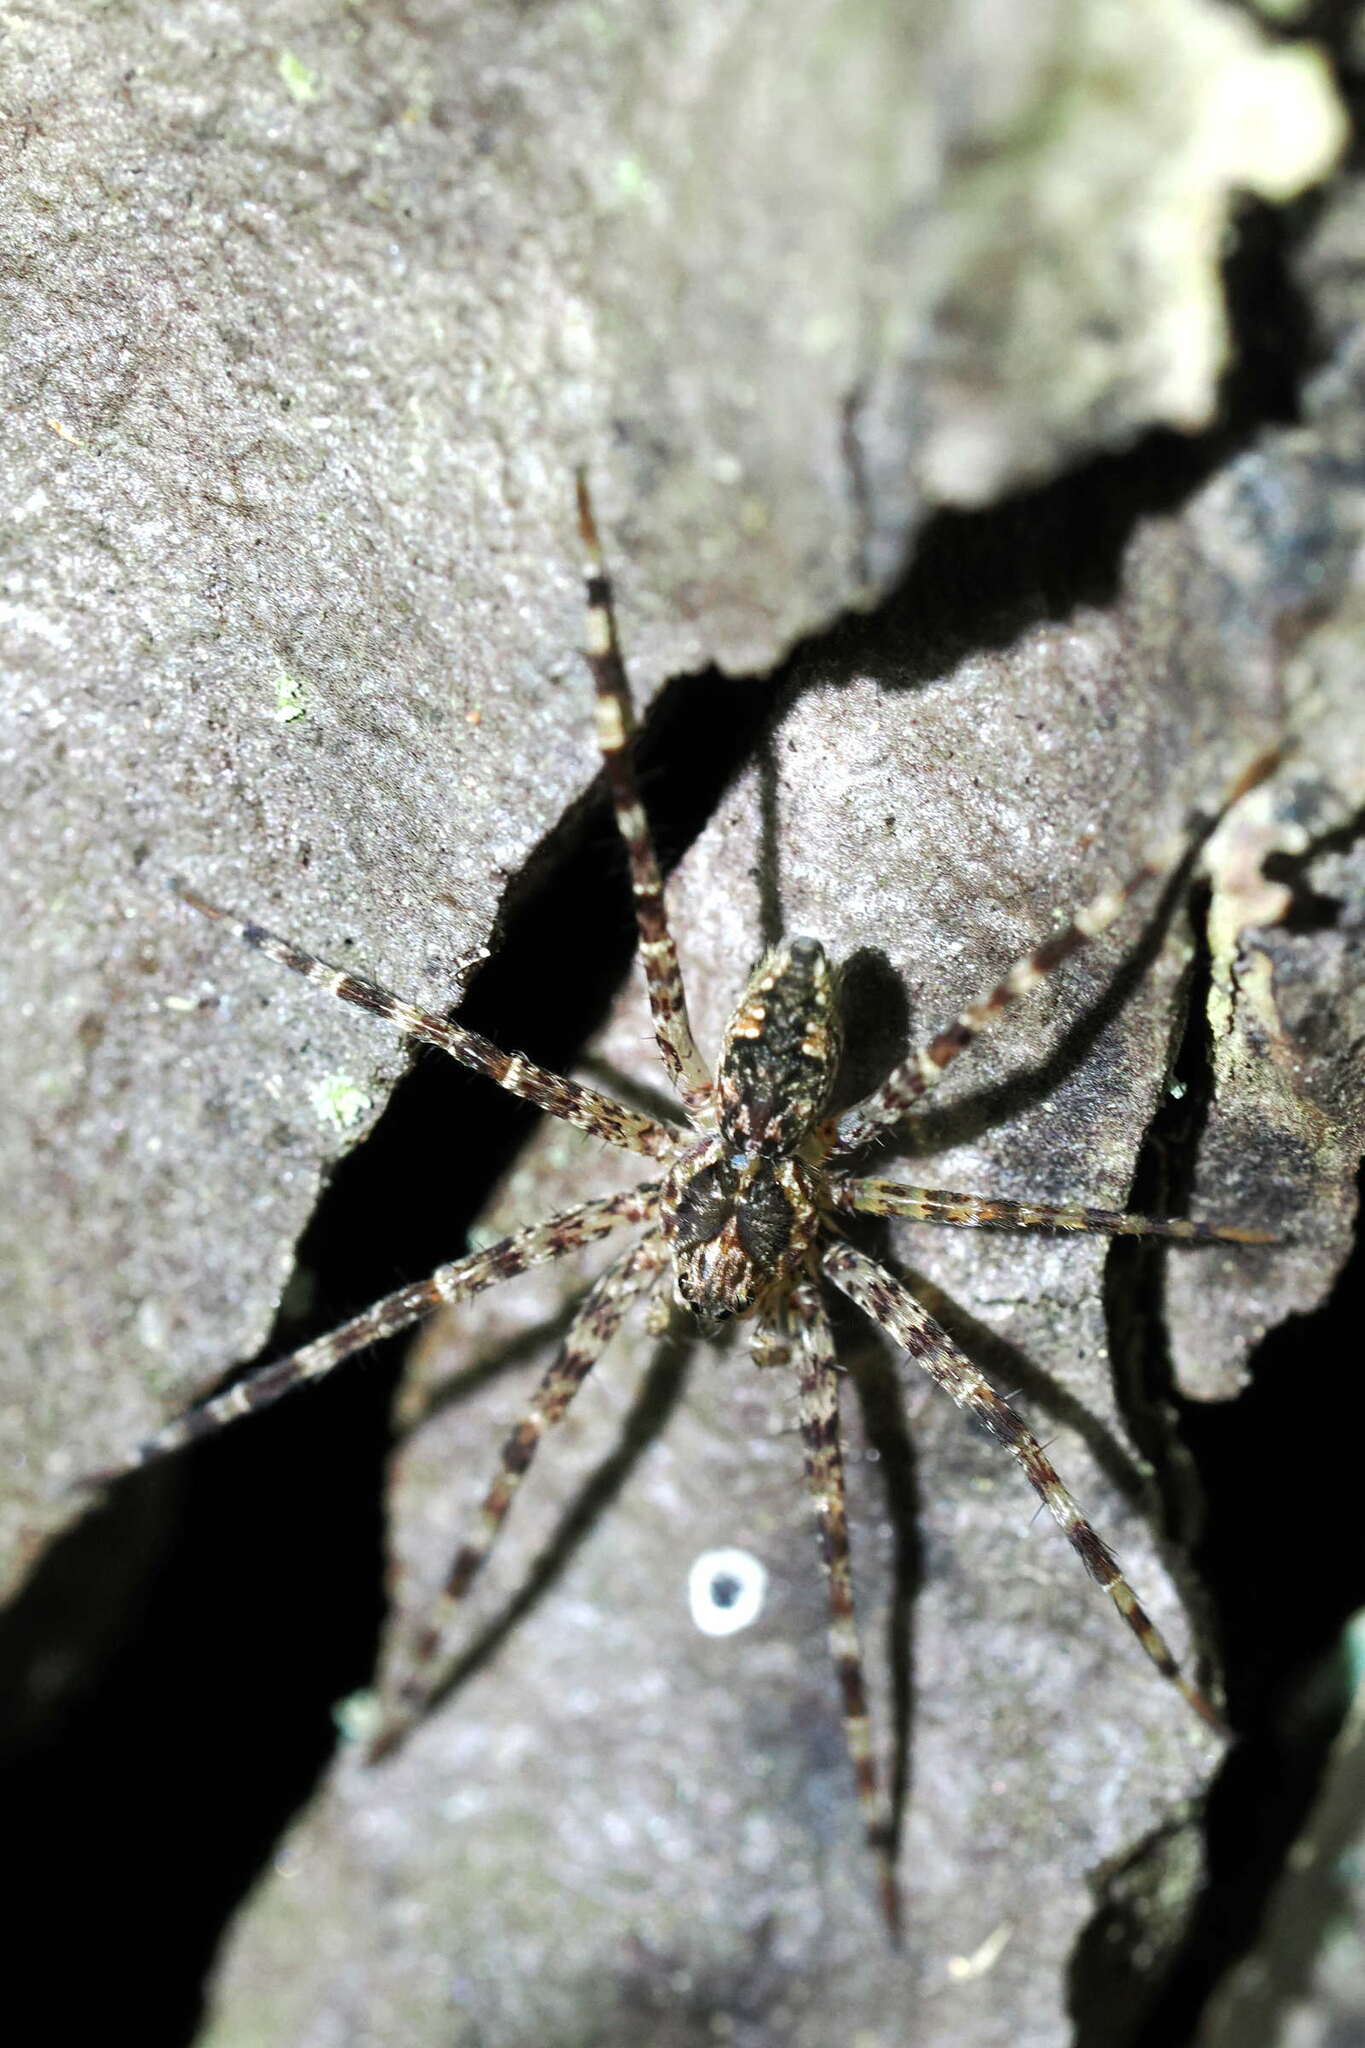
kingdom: Animalia
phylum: Arthropoda
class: Arachnida
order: Araneae
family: Pisauridae
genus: Dolomedes
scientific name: Dolomedes tenebrosus
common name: Dark fishing spider
